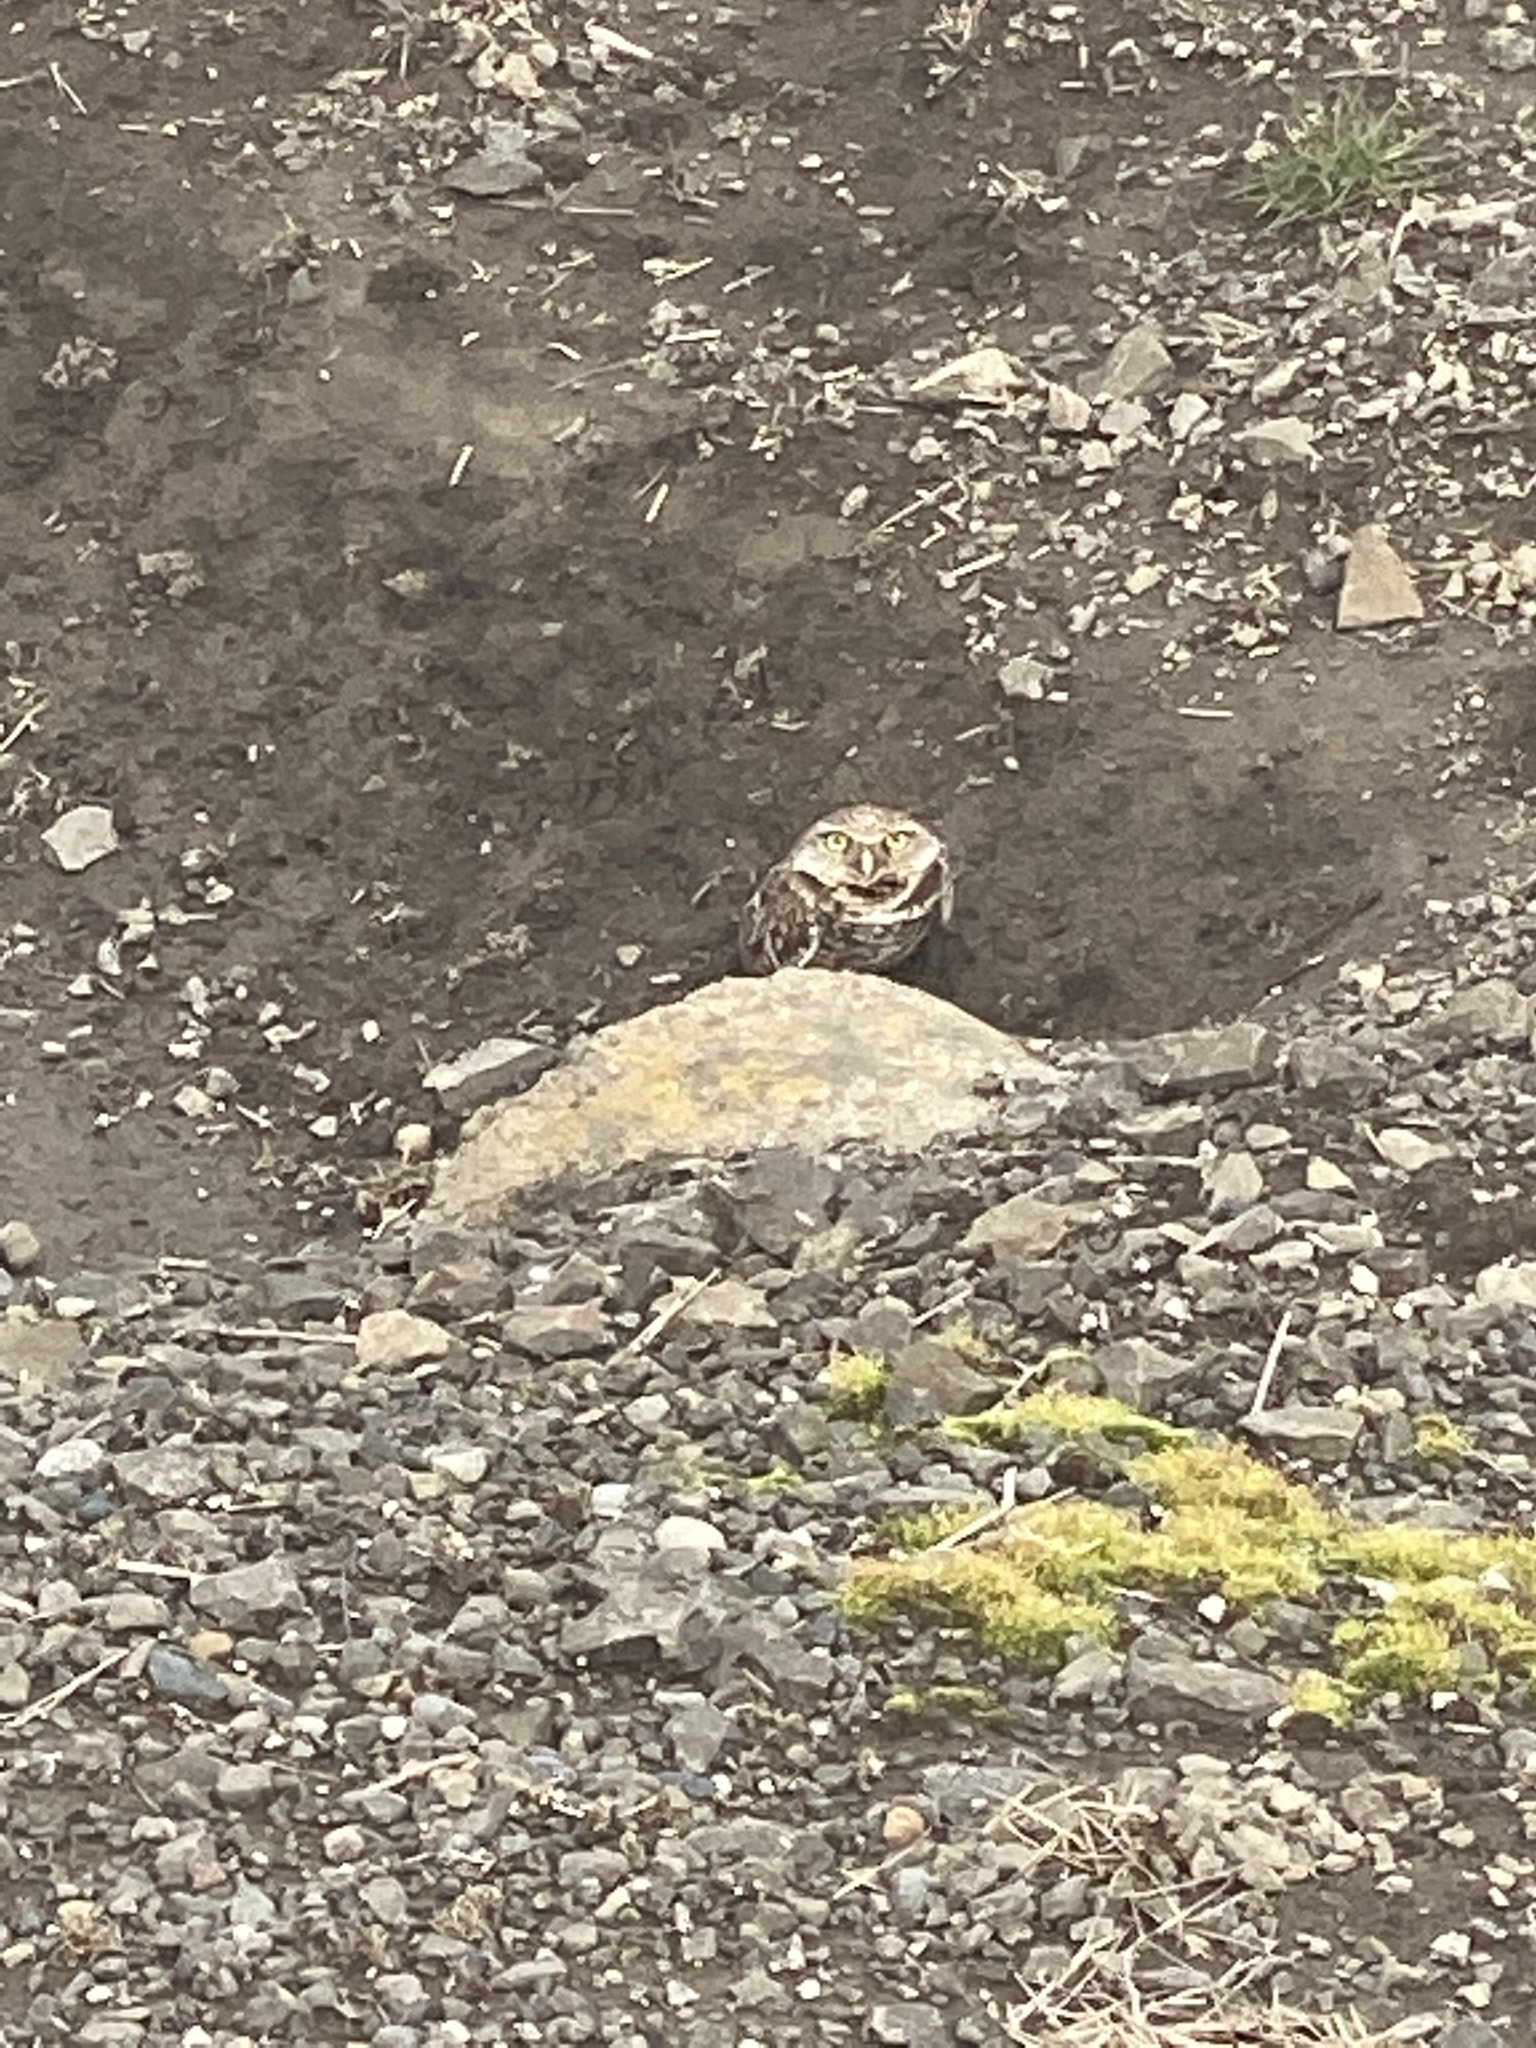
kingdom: Animalia
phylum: Chordata
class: Aves
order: Strigiformes
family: Strigidae
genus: Athene
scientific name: Athene cunicularia
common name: Burrowing owl
